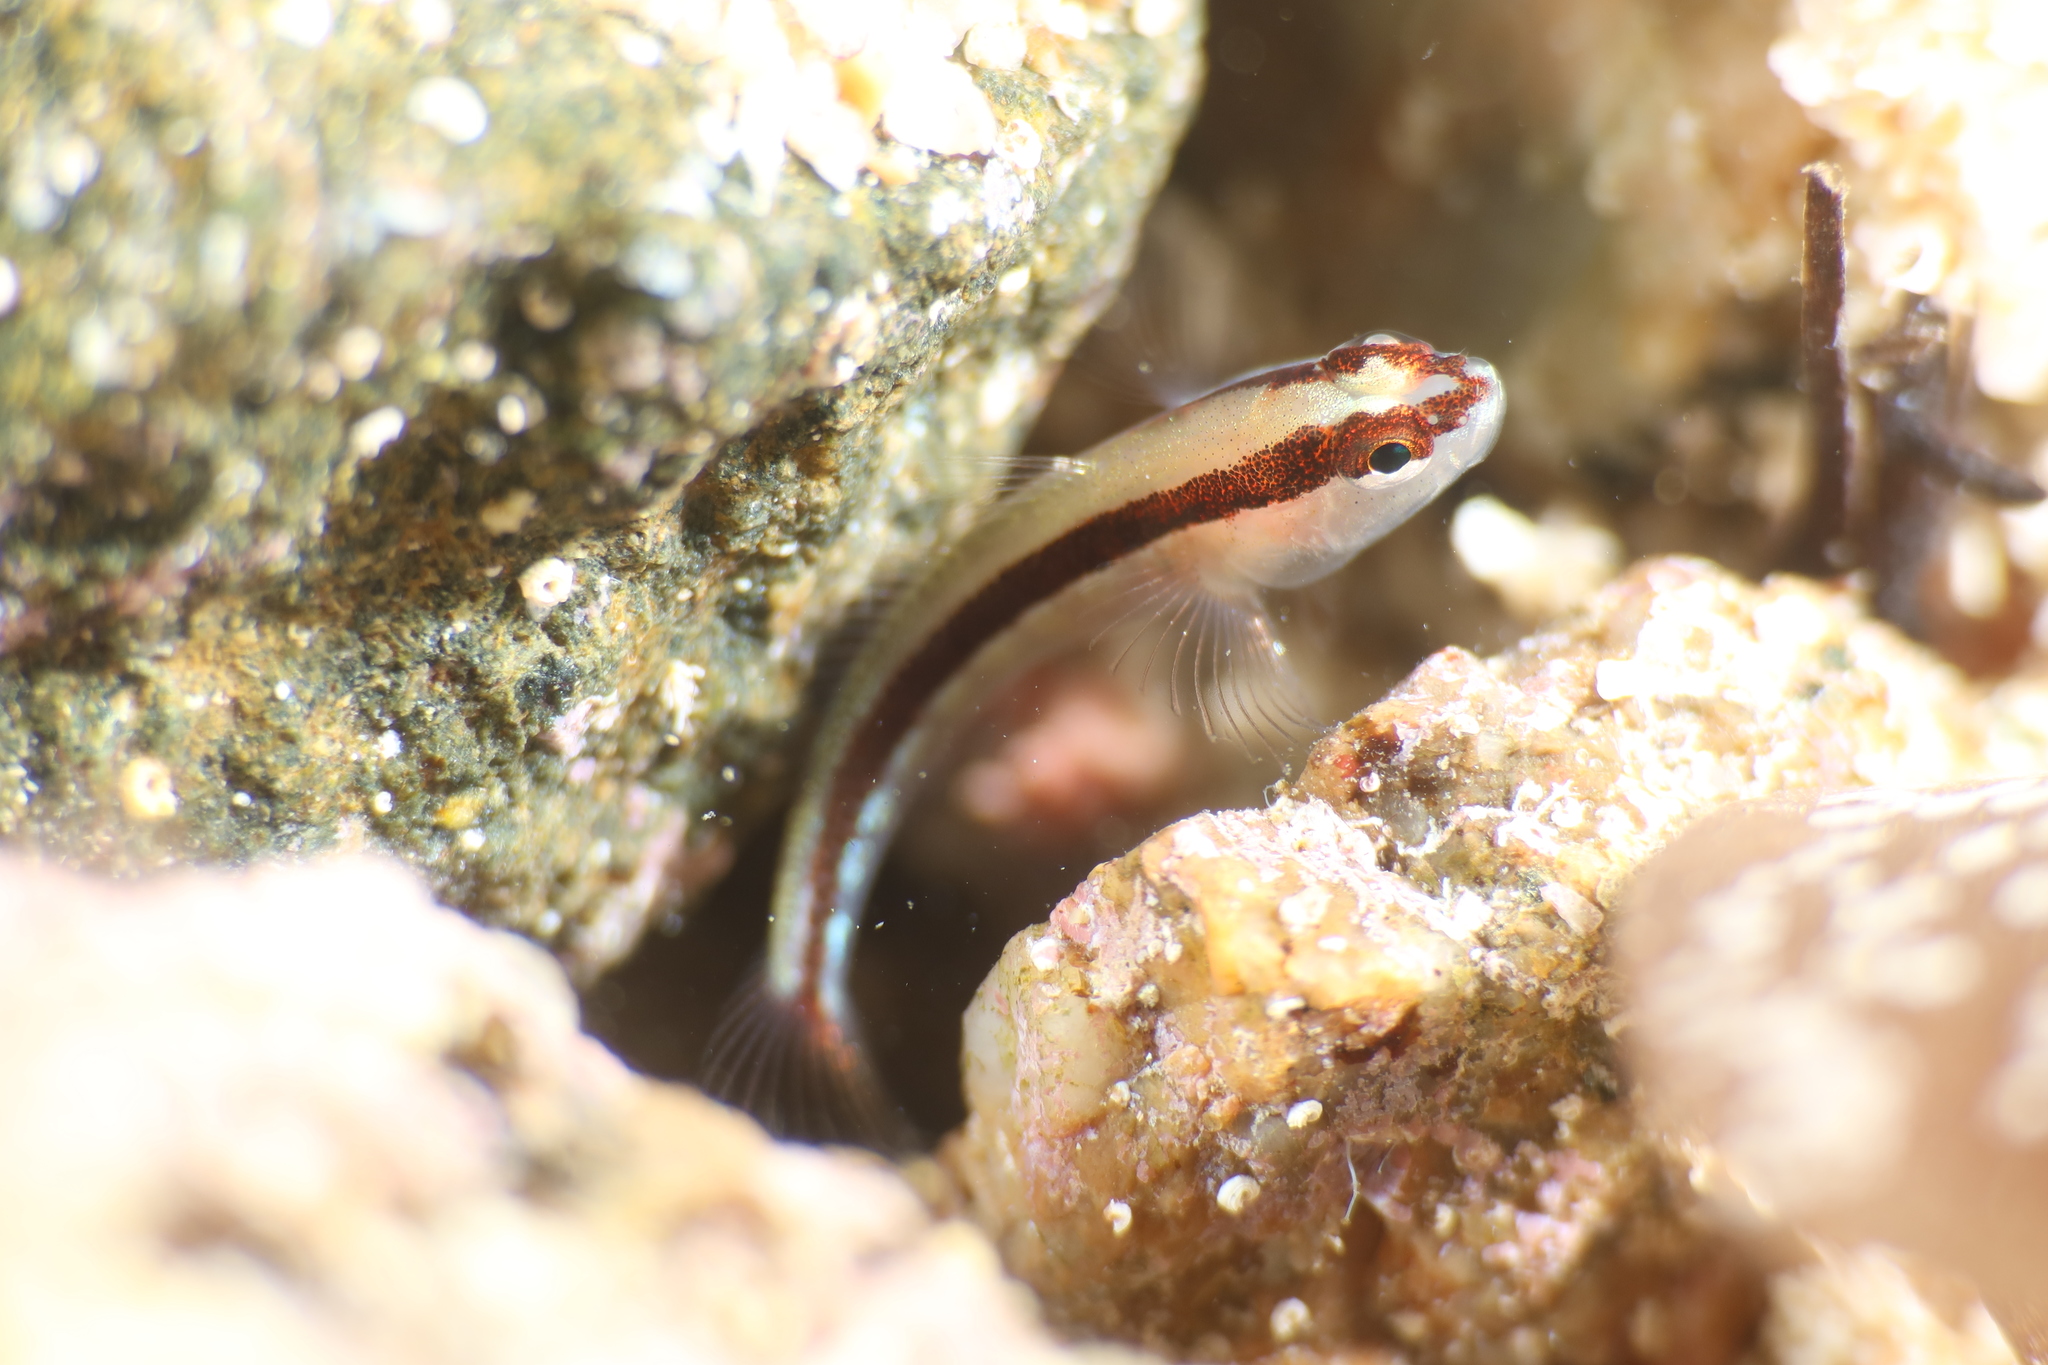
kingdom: Animalia
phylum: Chordata
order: Perciformes
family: Gobiidae
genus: Gobius
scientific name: Gobius vittatus
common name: Striped goby
